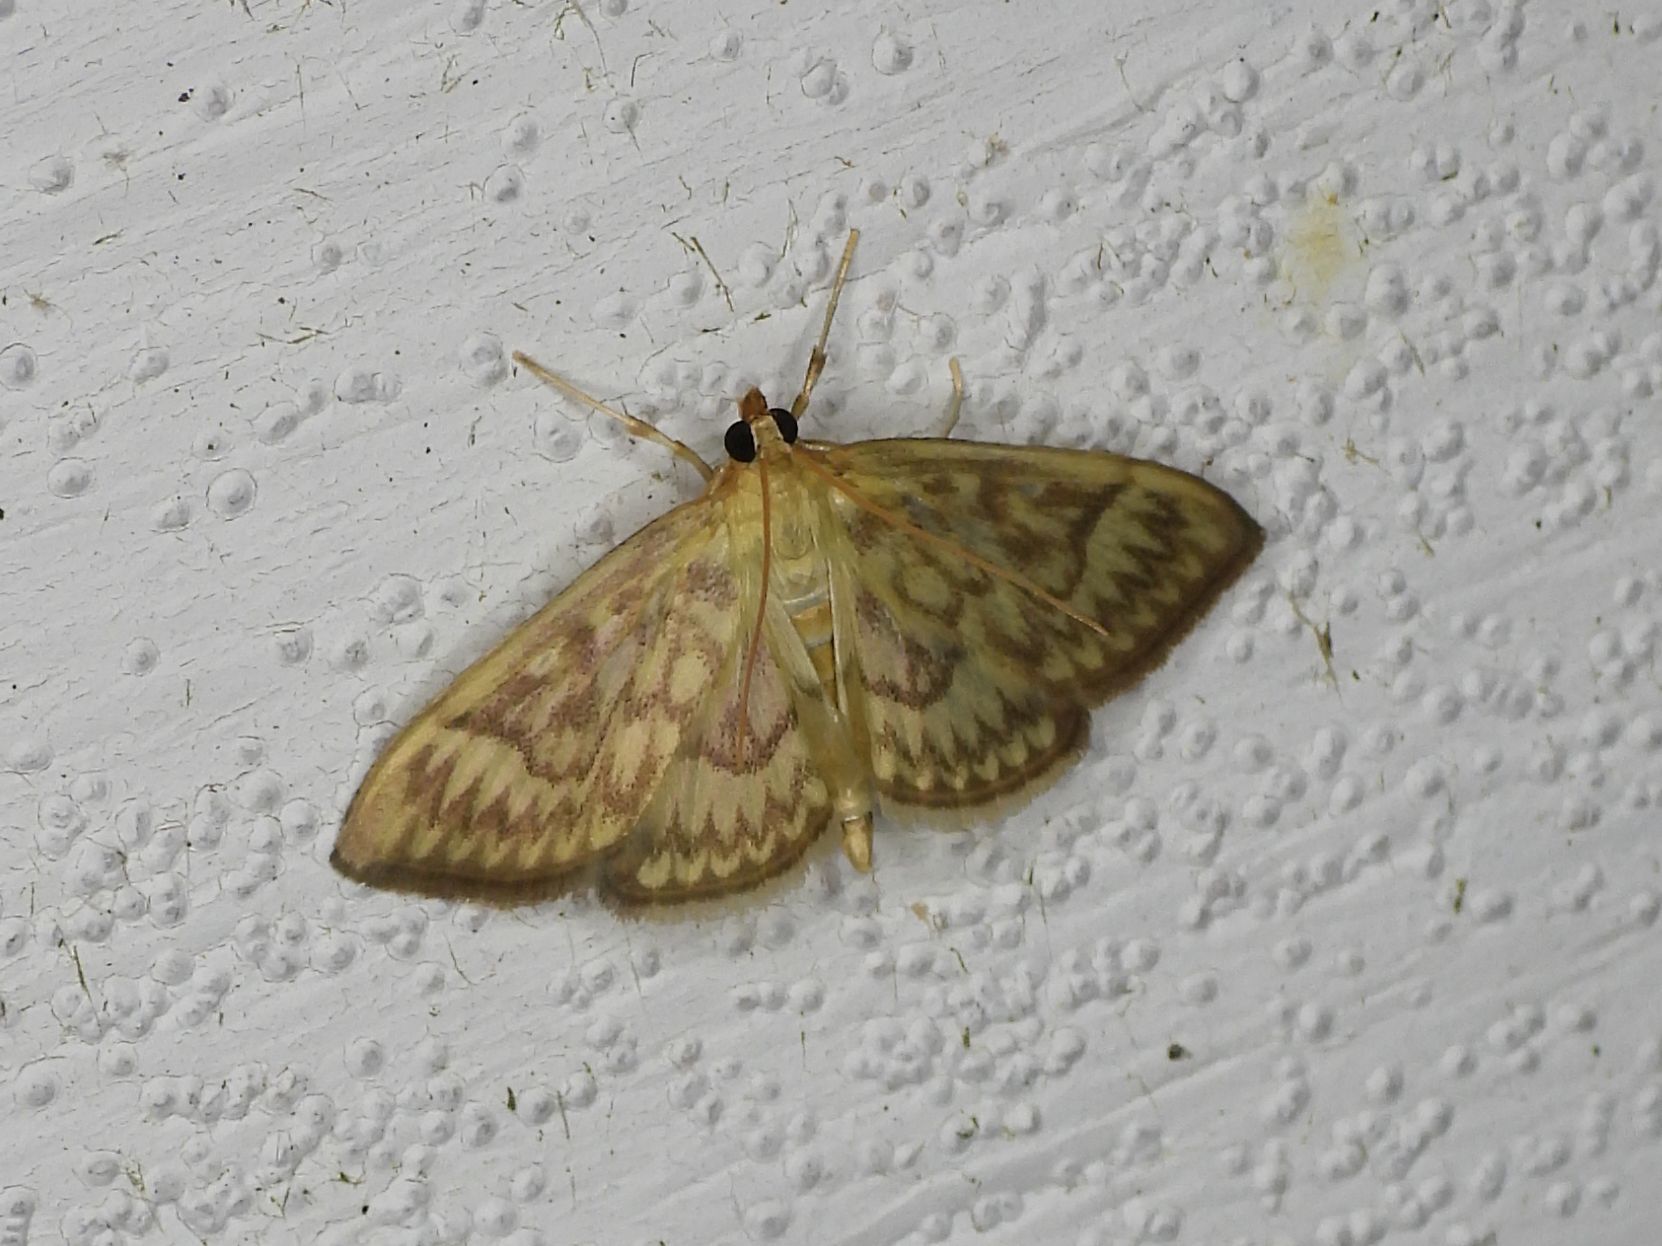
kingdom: Animalia
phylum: Arthropoda
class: Insecta
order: Lepidoptera
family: Crambidae
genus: Herpetogramma
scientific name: Herpetogramma pertextalis
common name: Bold-feathered grass moth
